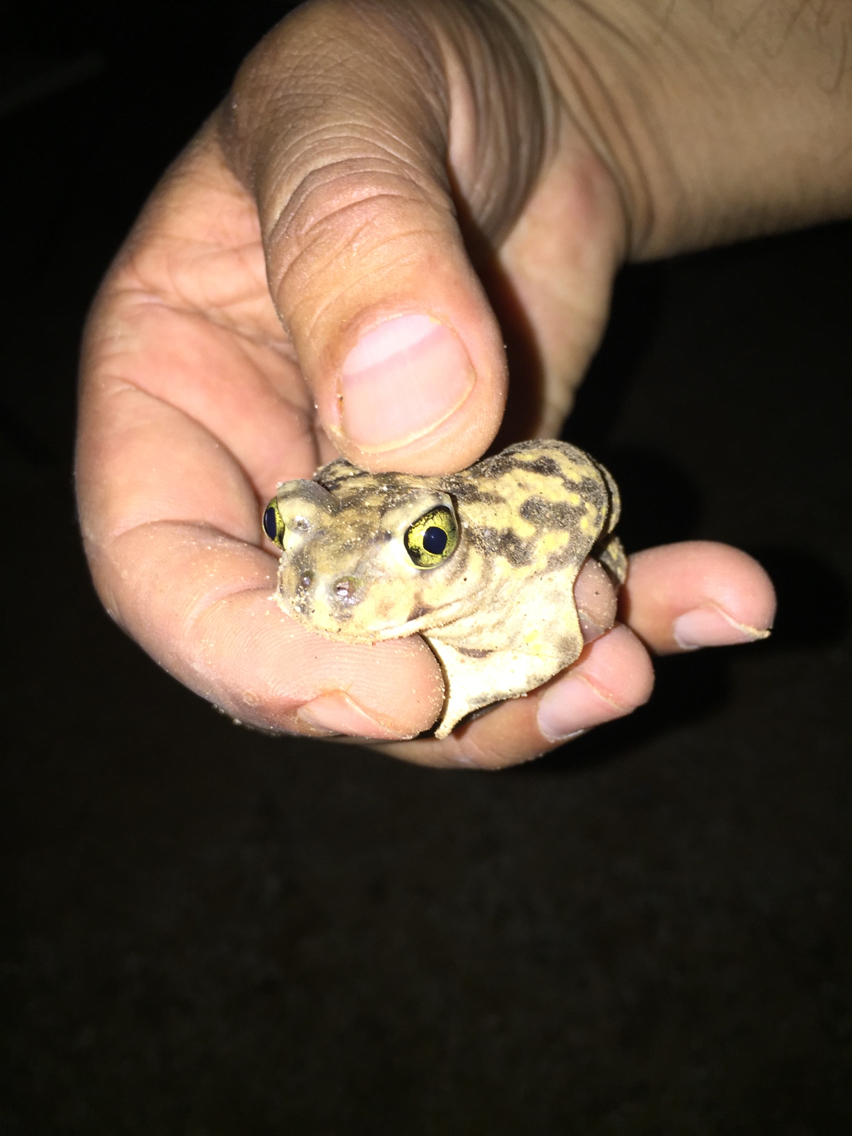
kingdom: Animalia
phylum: Chordata
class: Amphibia
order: Anura
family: Scaphiopodidae
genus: Scaphiopus
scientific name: Scaphiopus couchii
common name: Couch's spadefoot toad
